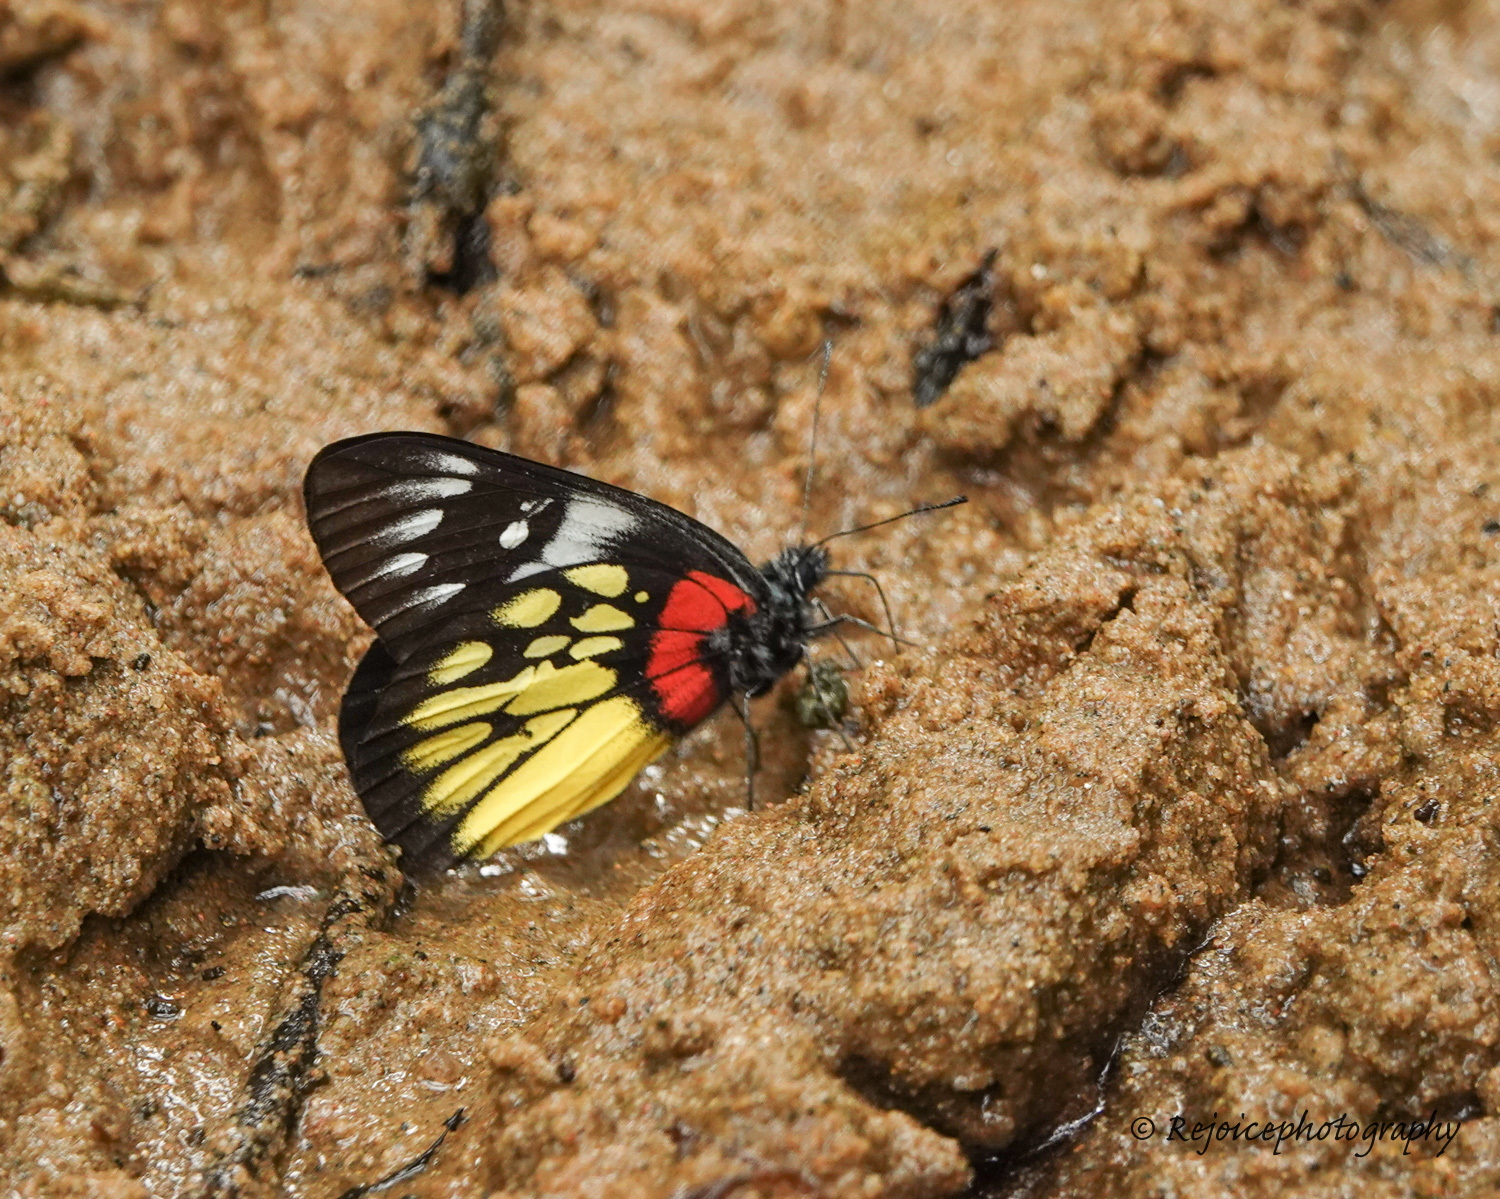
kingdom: Animalia
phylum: Arthropoda
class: Insecta
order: Lepidoptera
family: Pieridae
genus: Delias
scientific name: Delias pasithoe
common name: Red-base jezebel
